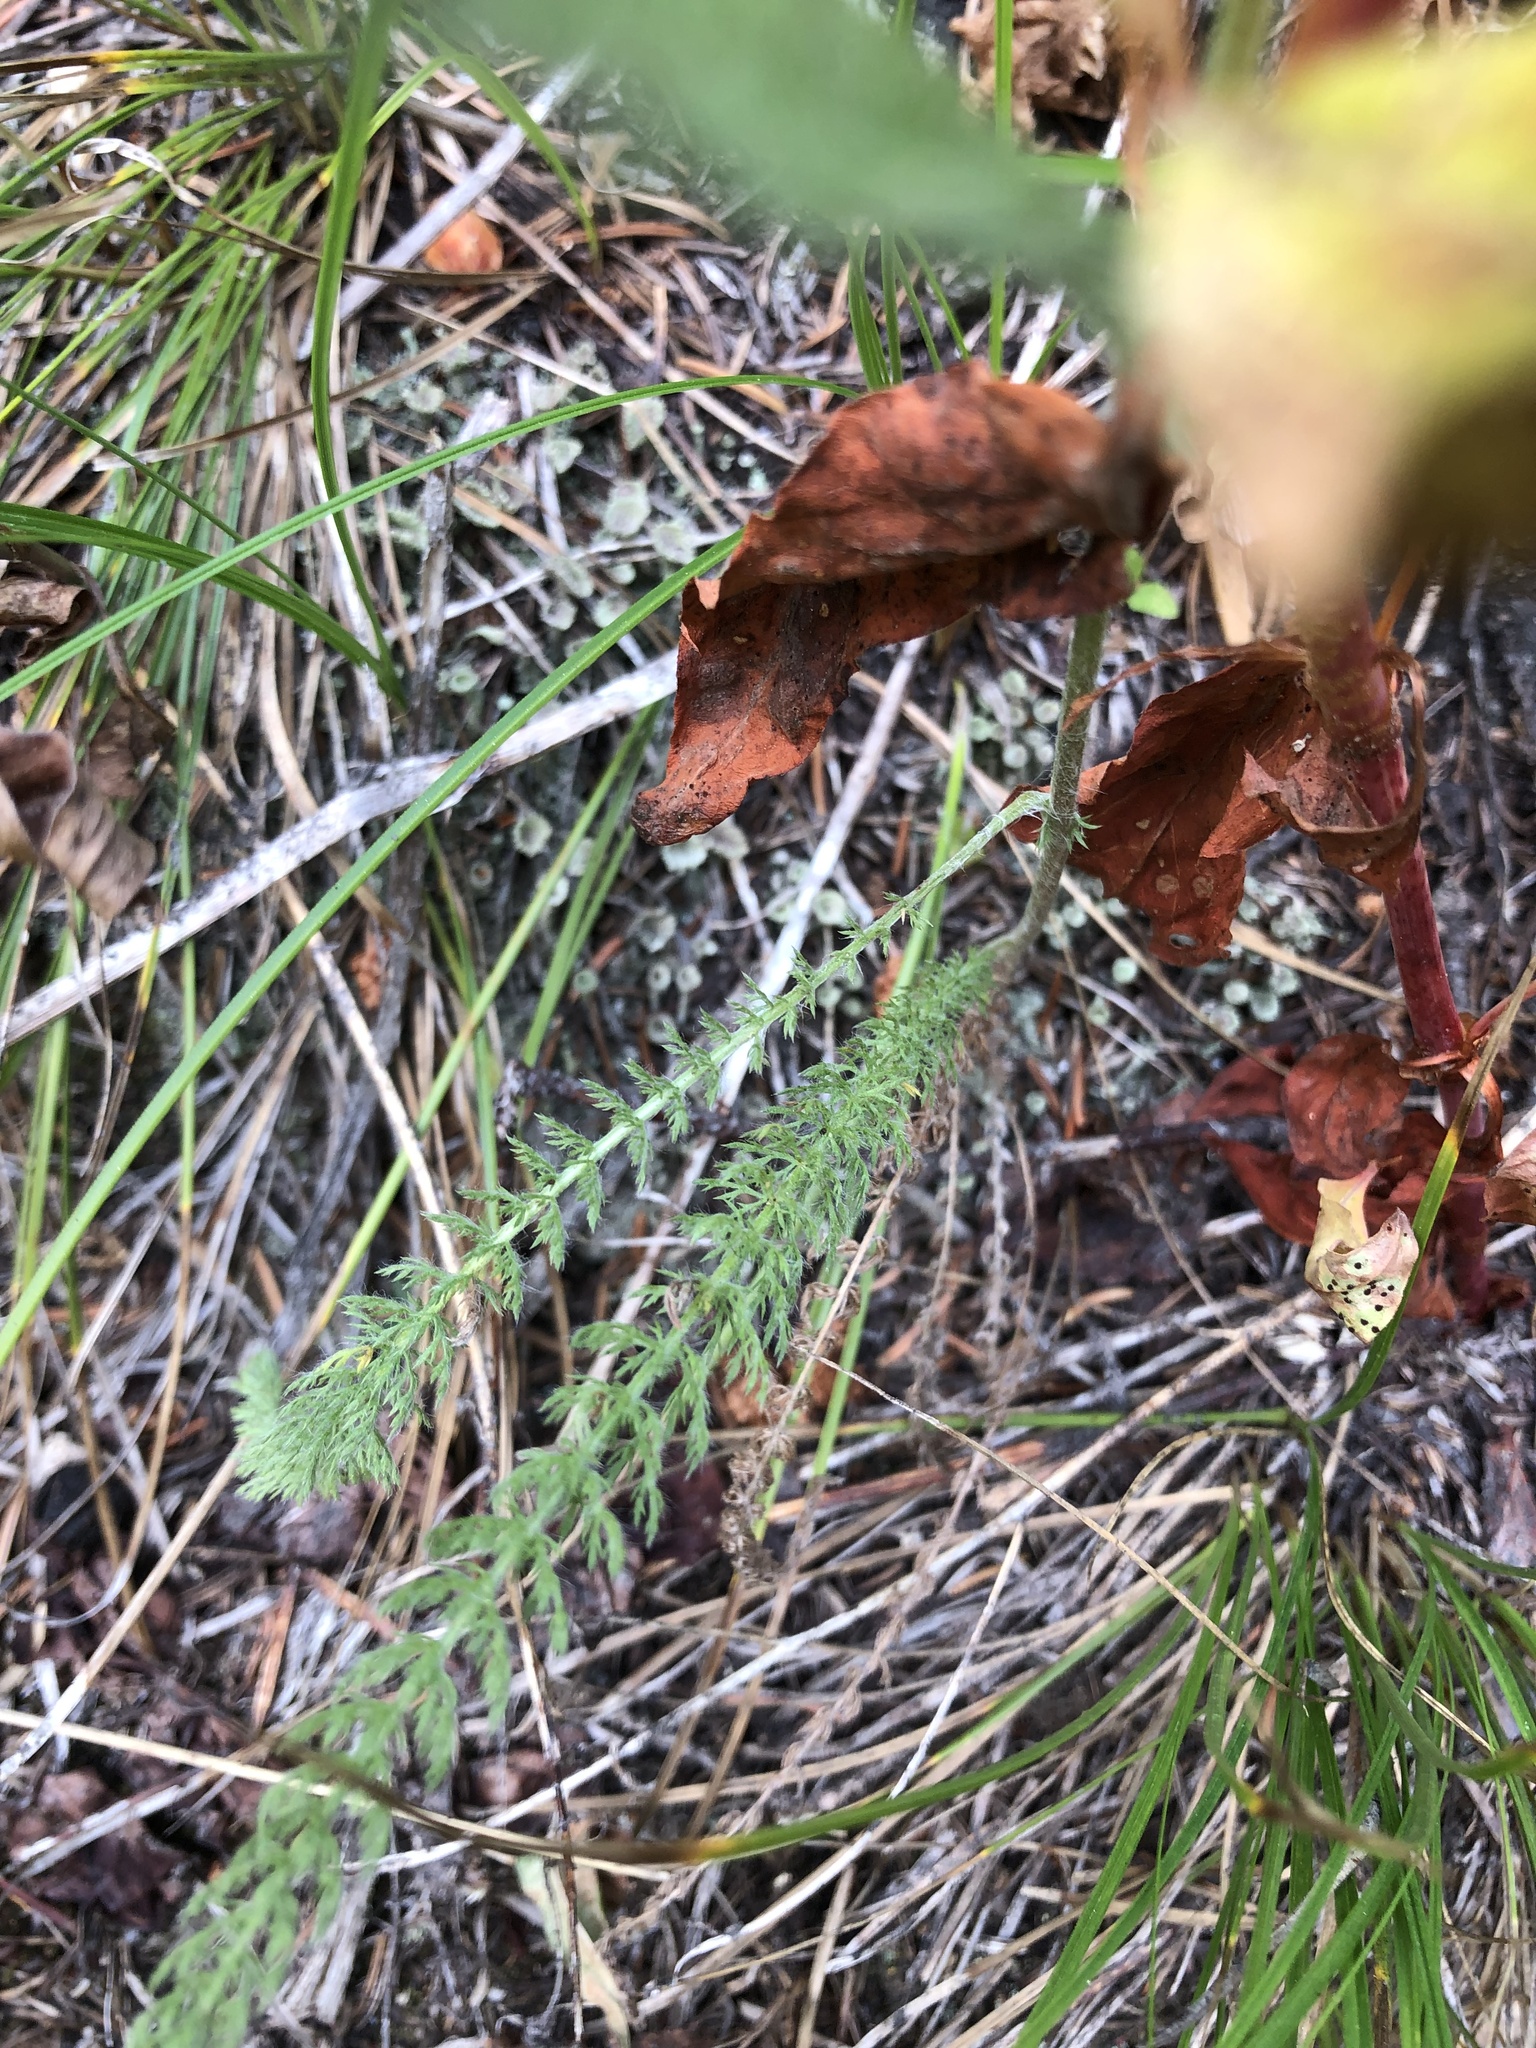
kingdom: Plantae
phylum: Tracheophyta
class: Magnoliopsida
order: Asterales
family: Asteraceae
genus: Achillea
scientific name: Achillea millefolium
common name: Yarrow
